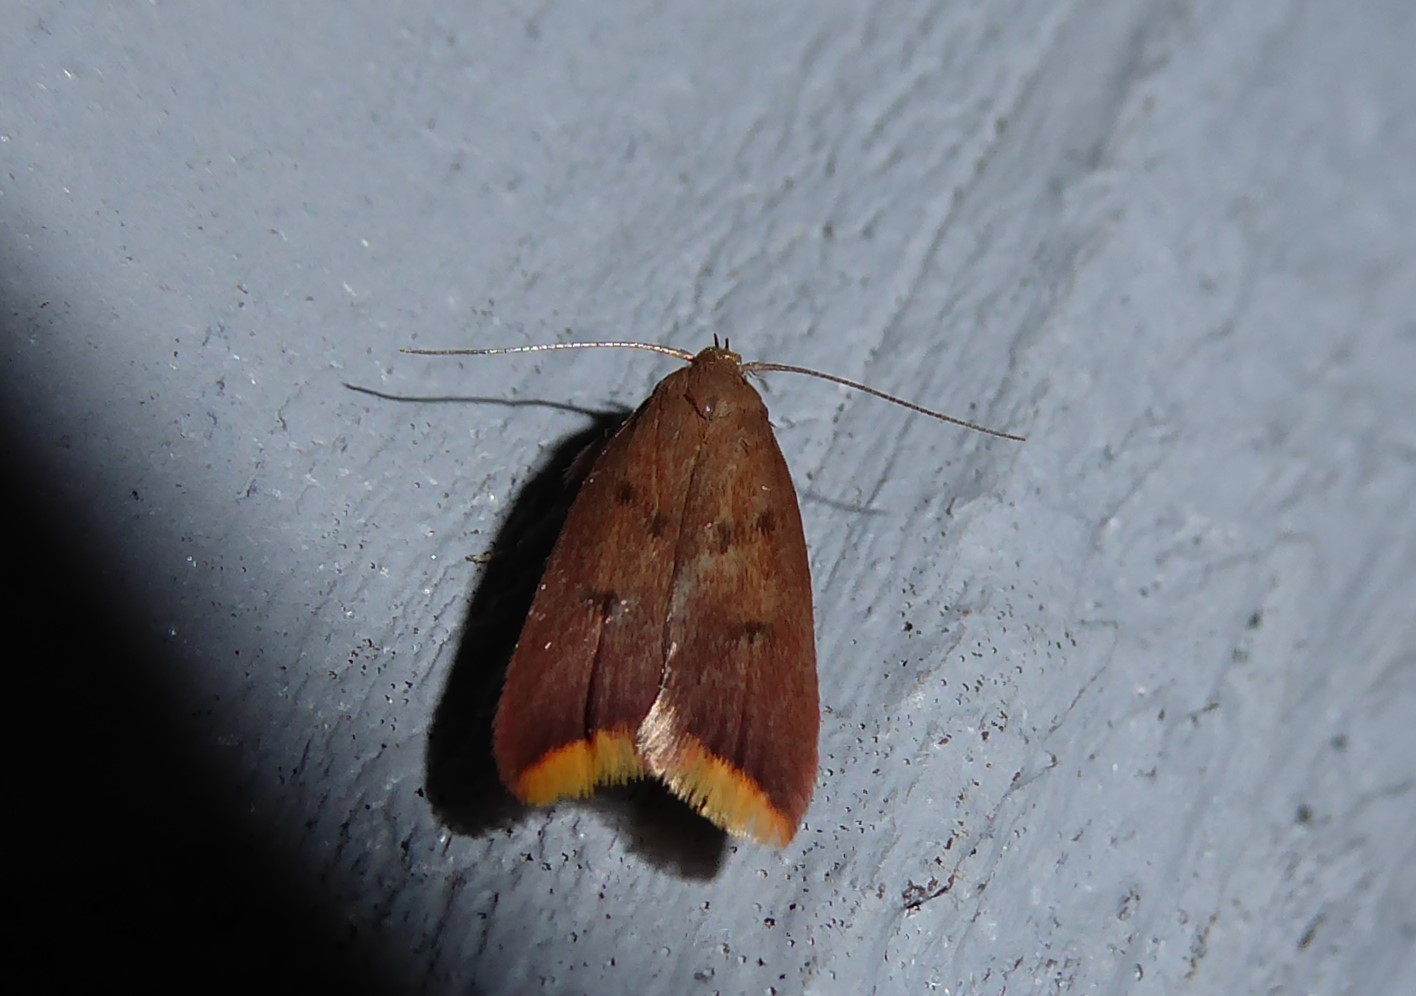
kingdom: Animalia
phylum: Arthropoda
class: Insecta
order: Lepidoptera
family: Oecophoridae
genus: Tachystola
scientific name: Tachystola acroxantha
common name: Ruddy streak
